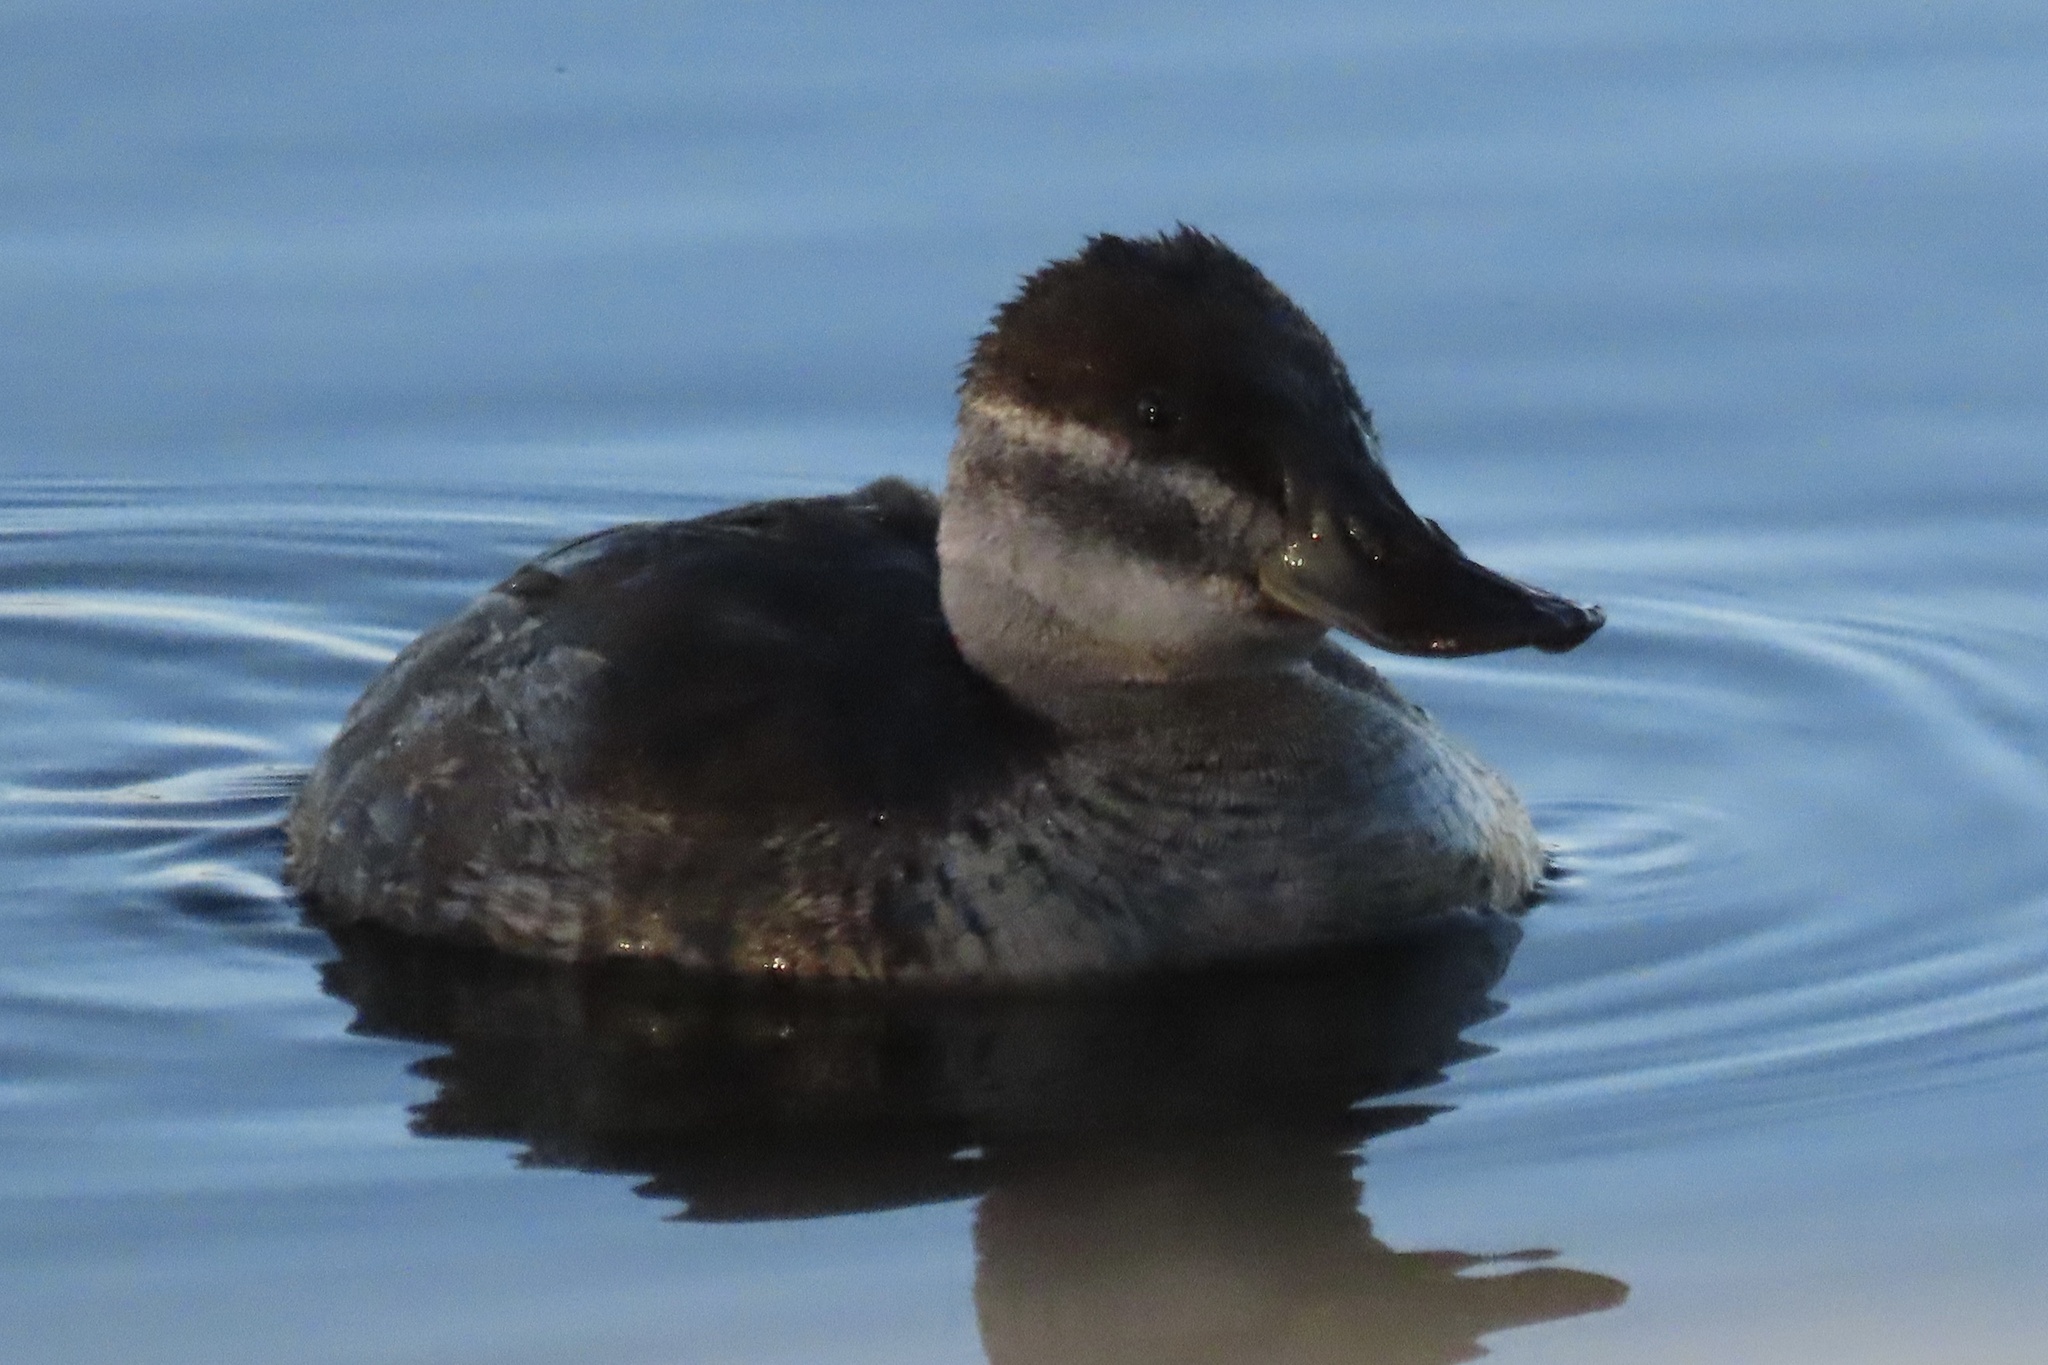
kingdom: Animalia
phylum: Chordata
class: Aves
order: Anseriformes
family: Anatidae
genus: Oxyura
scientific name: Oxyura jamaicensis
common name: Ruddy duck
